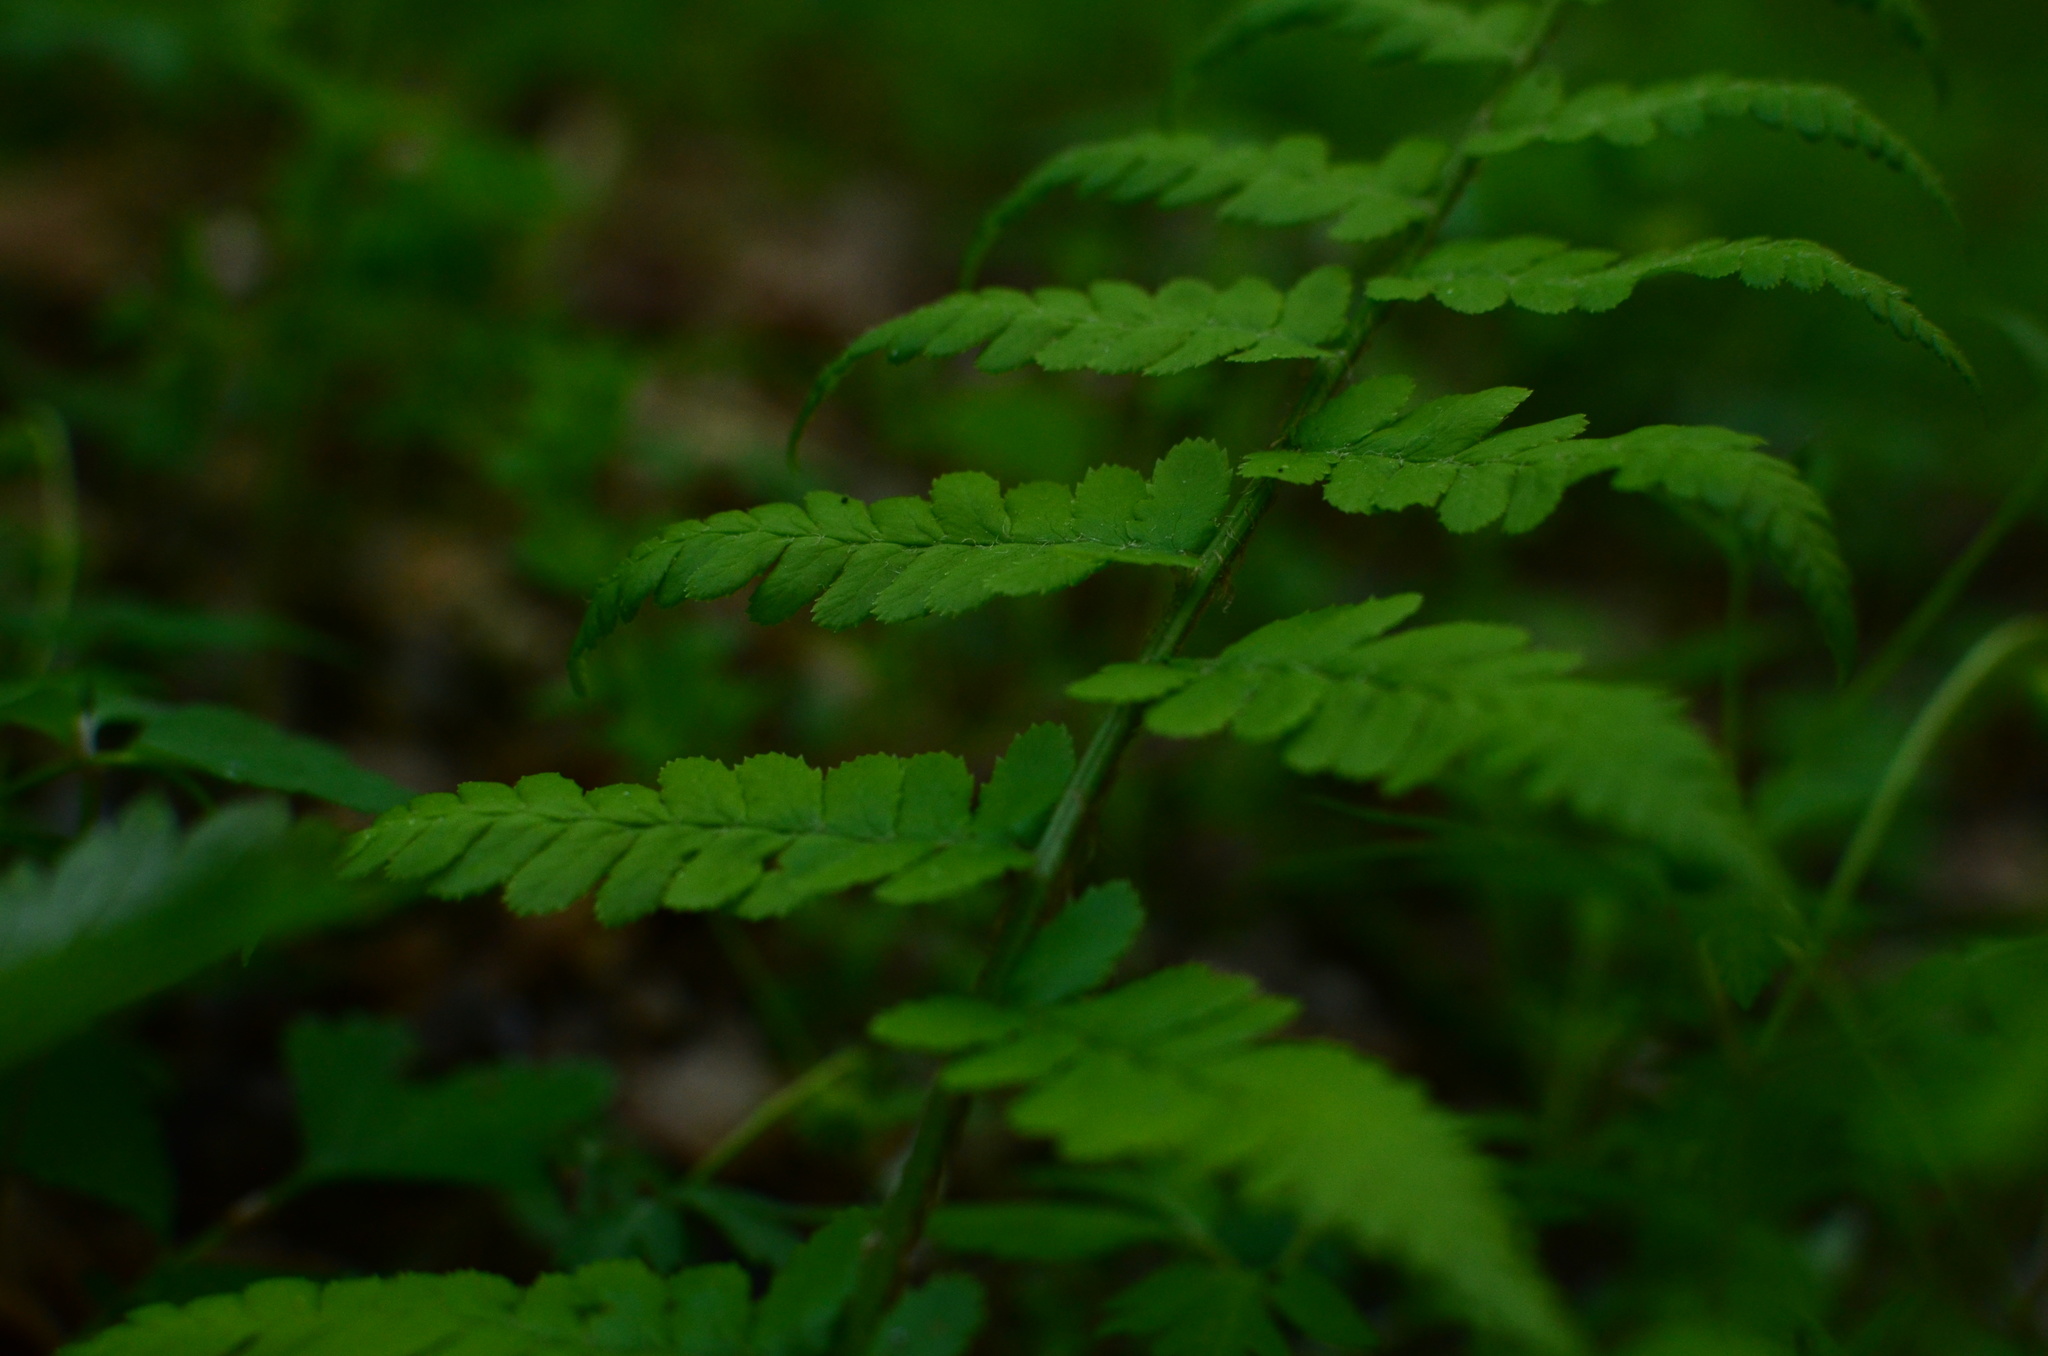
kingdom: Plantae
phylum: Tracheophyta
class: Polypodiopsida
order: Polypodiales
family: Dryopteridaceae
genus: Dryopteris
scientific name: Dryopteris filix-mas
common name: Male fern
